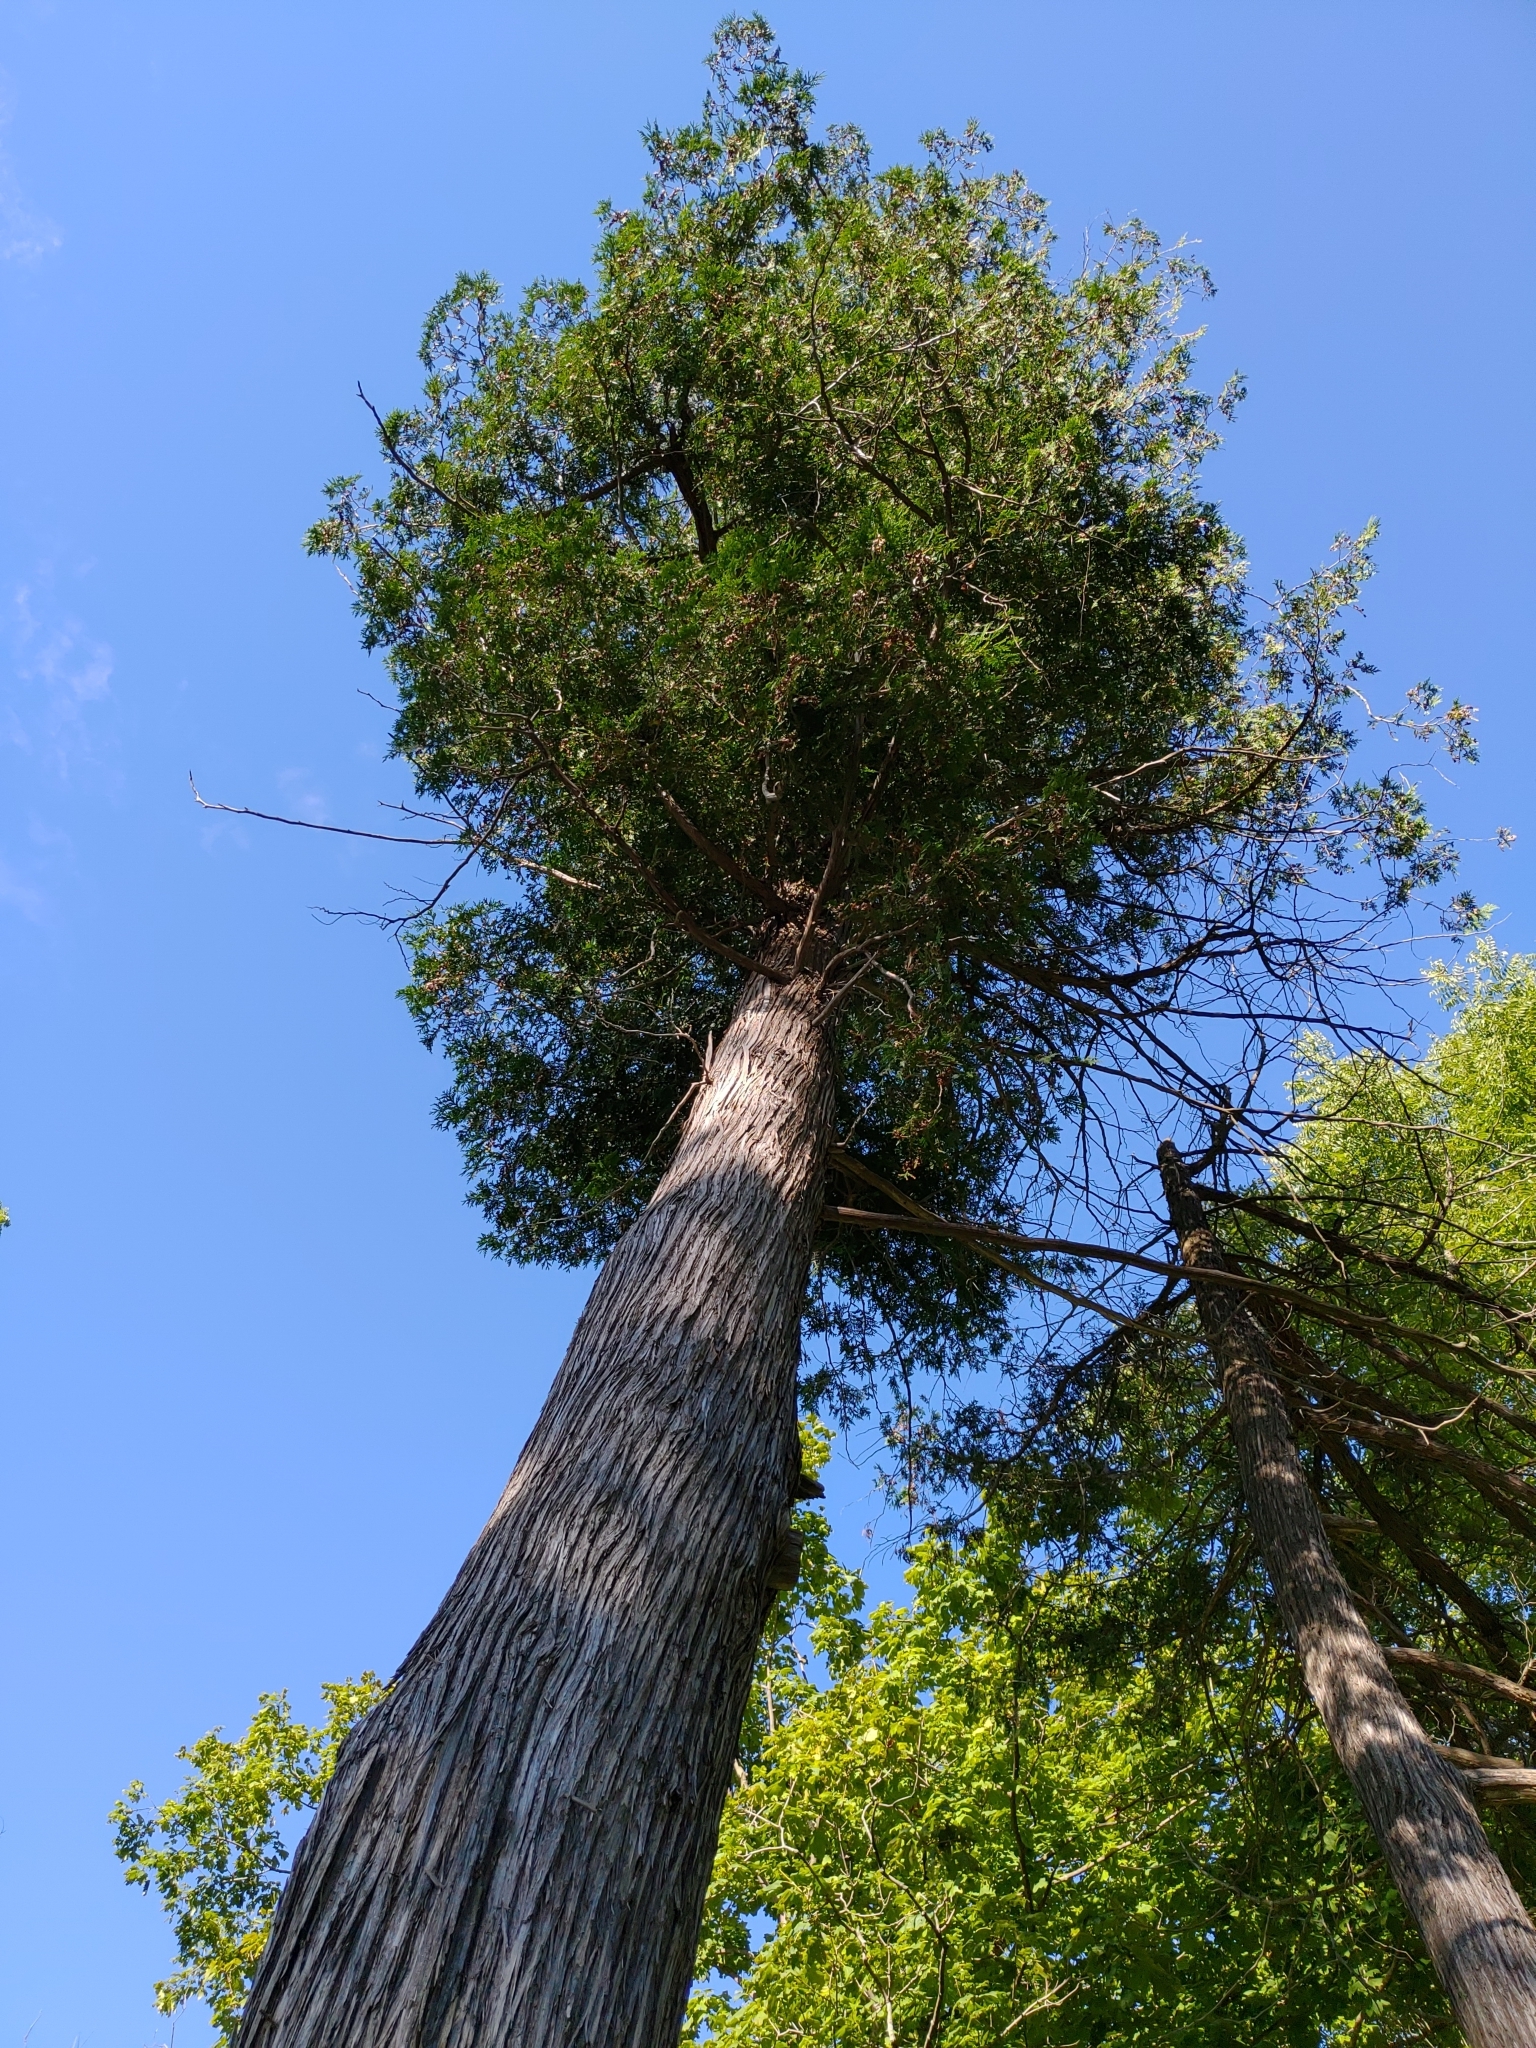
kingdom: Plantae
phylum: Tracheophyta
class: Pinopsida
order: Pinales
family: Cupressaceae
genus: Thuja
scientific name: Thuja occidentalis
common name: Northern white-cedar
